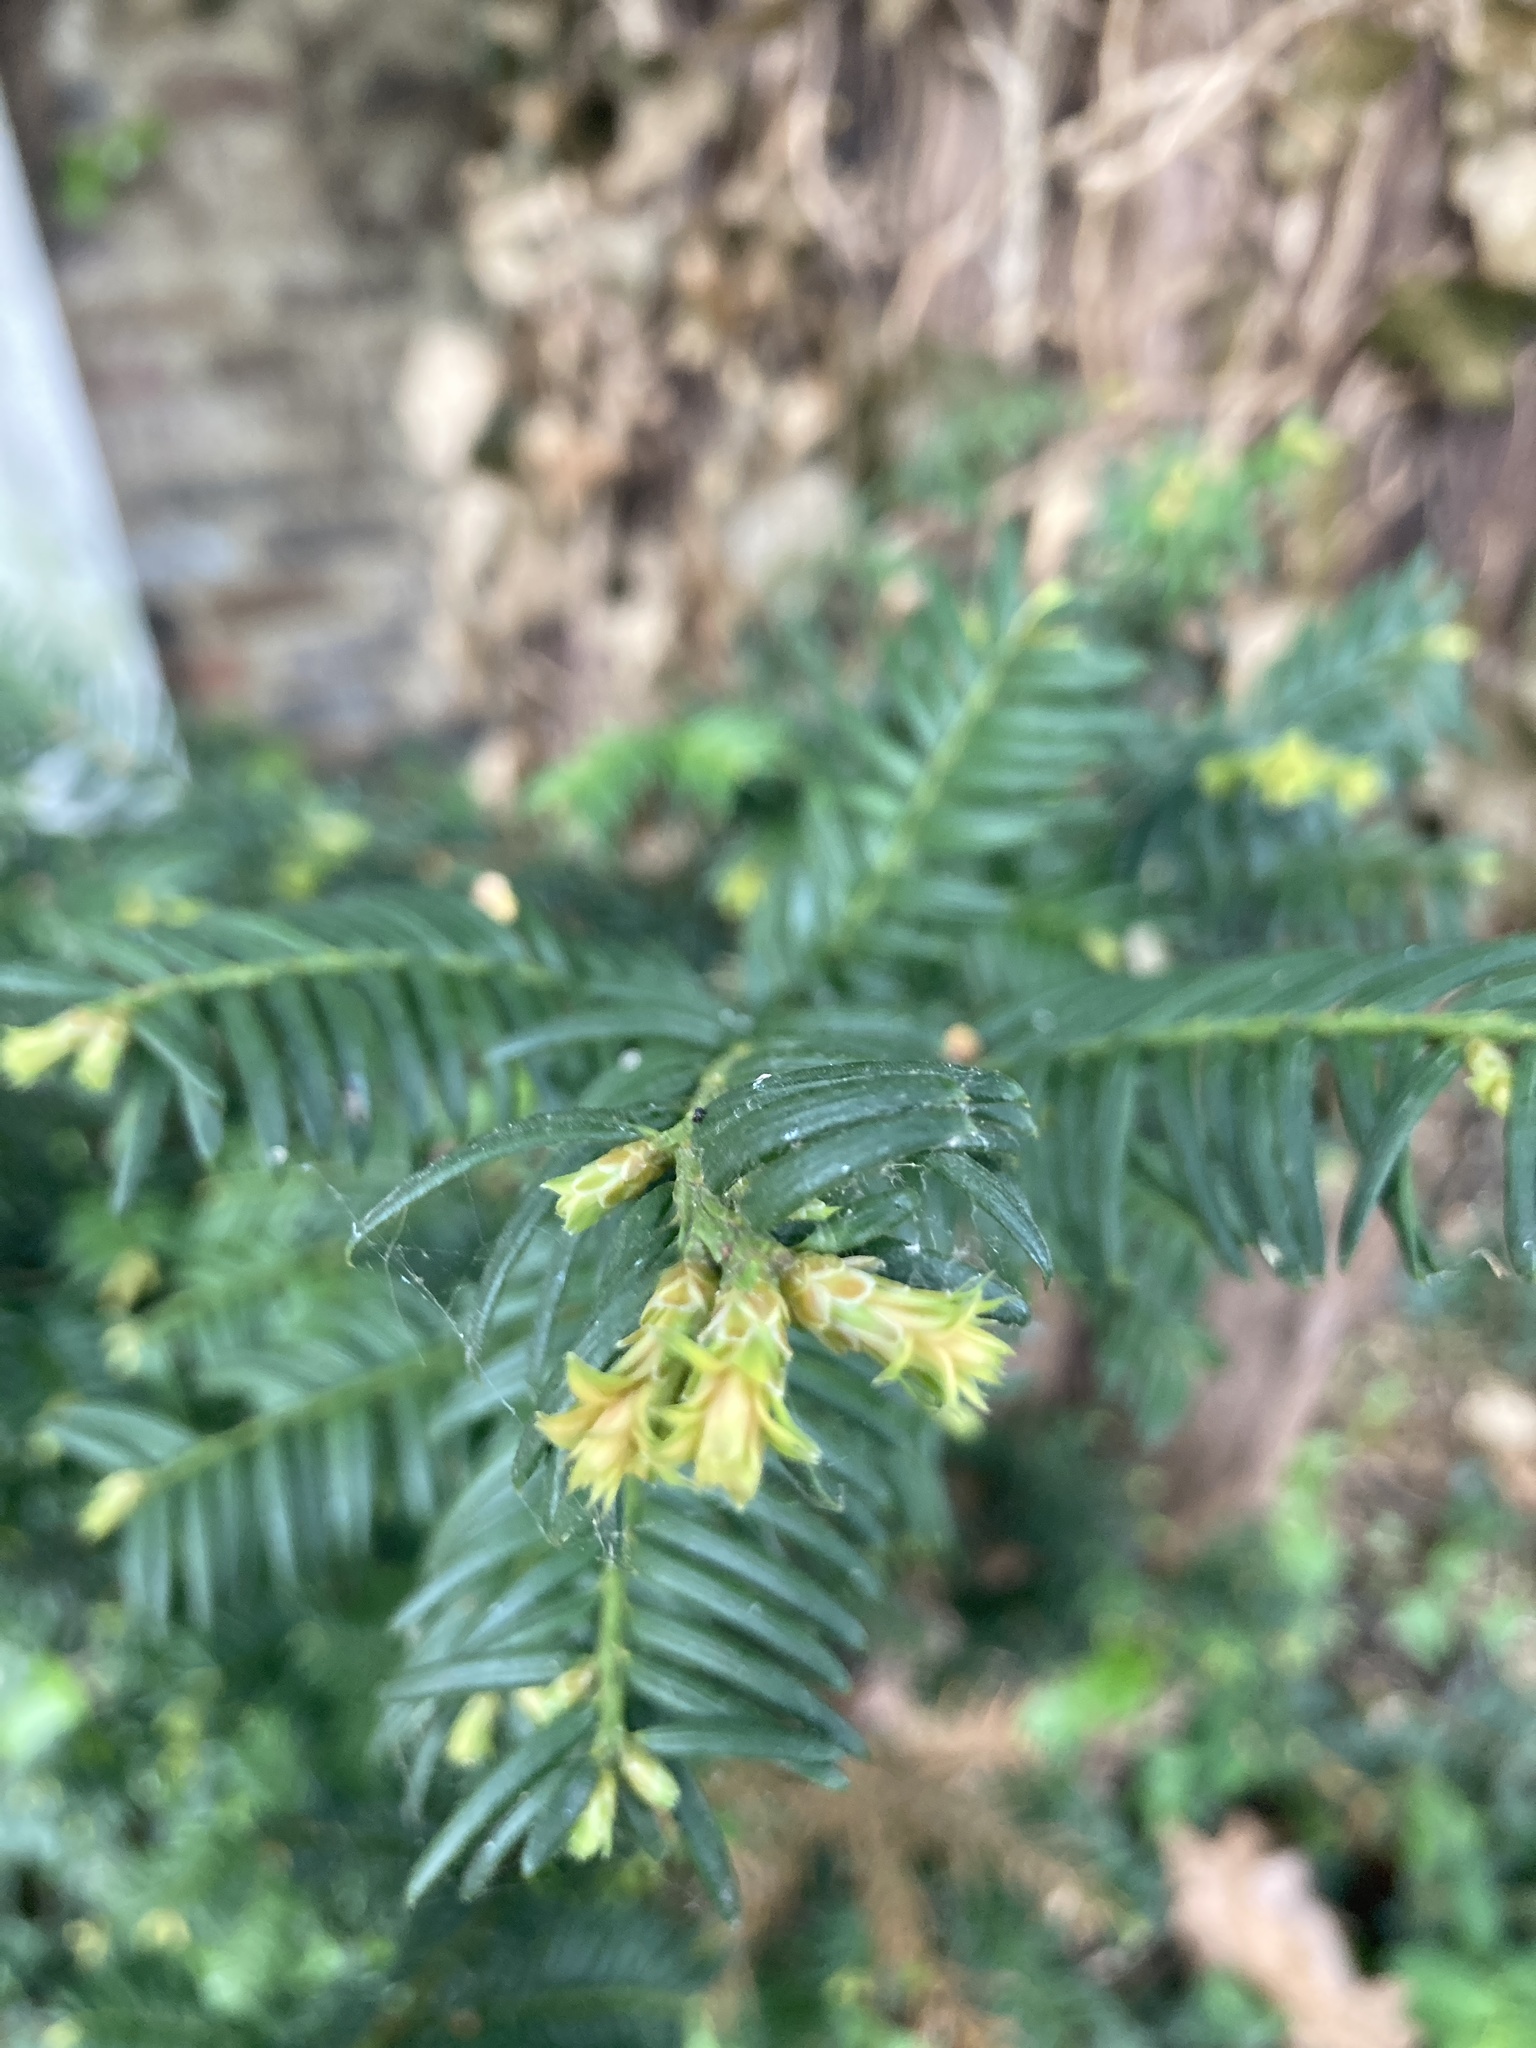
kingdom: Plantae
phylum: Tracheophyta
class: Pinopsida
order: Pinales
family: Taxaceae
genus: Taxus
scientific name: Taxus baccata
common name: Yew
